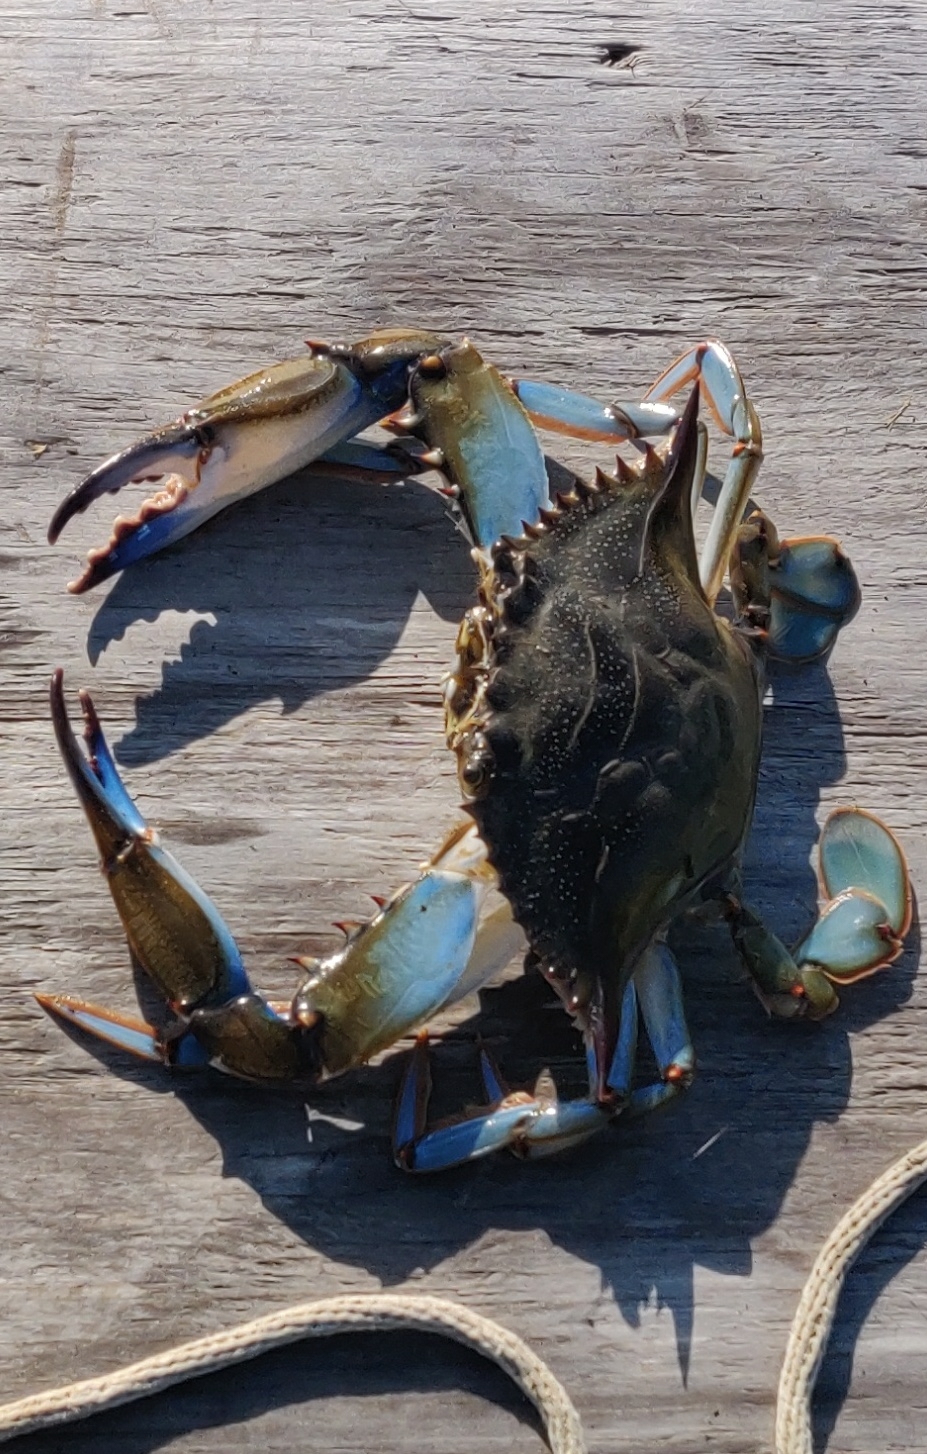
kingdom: Animalia
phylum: Arthropoda
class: Malacostraca
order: Decapoda
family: Portunidae
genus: Callinectes
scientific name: Callinectes sapidus
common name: Blue crab
